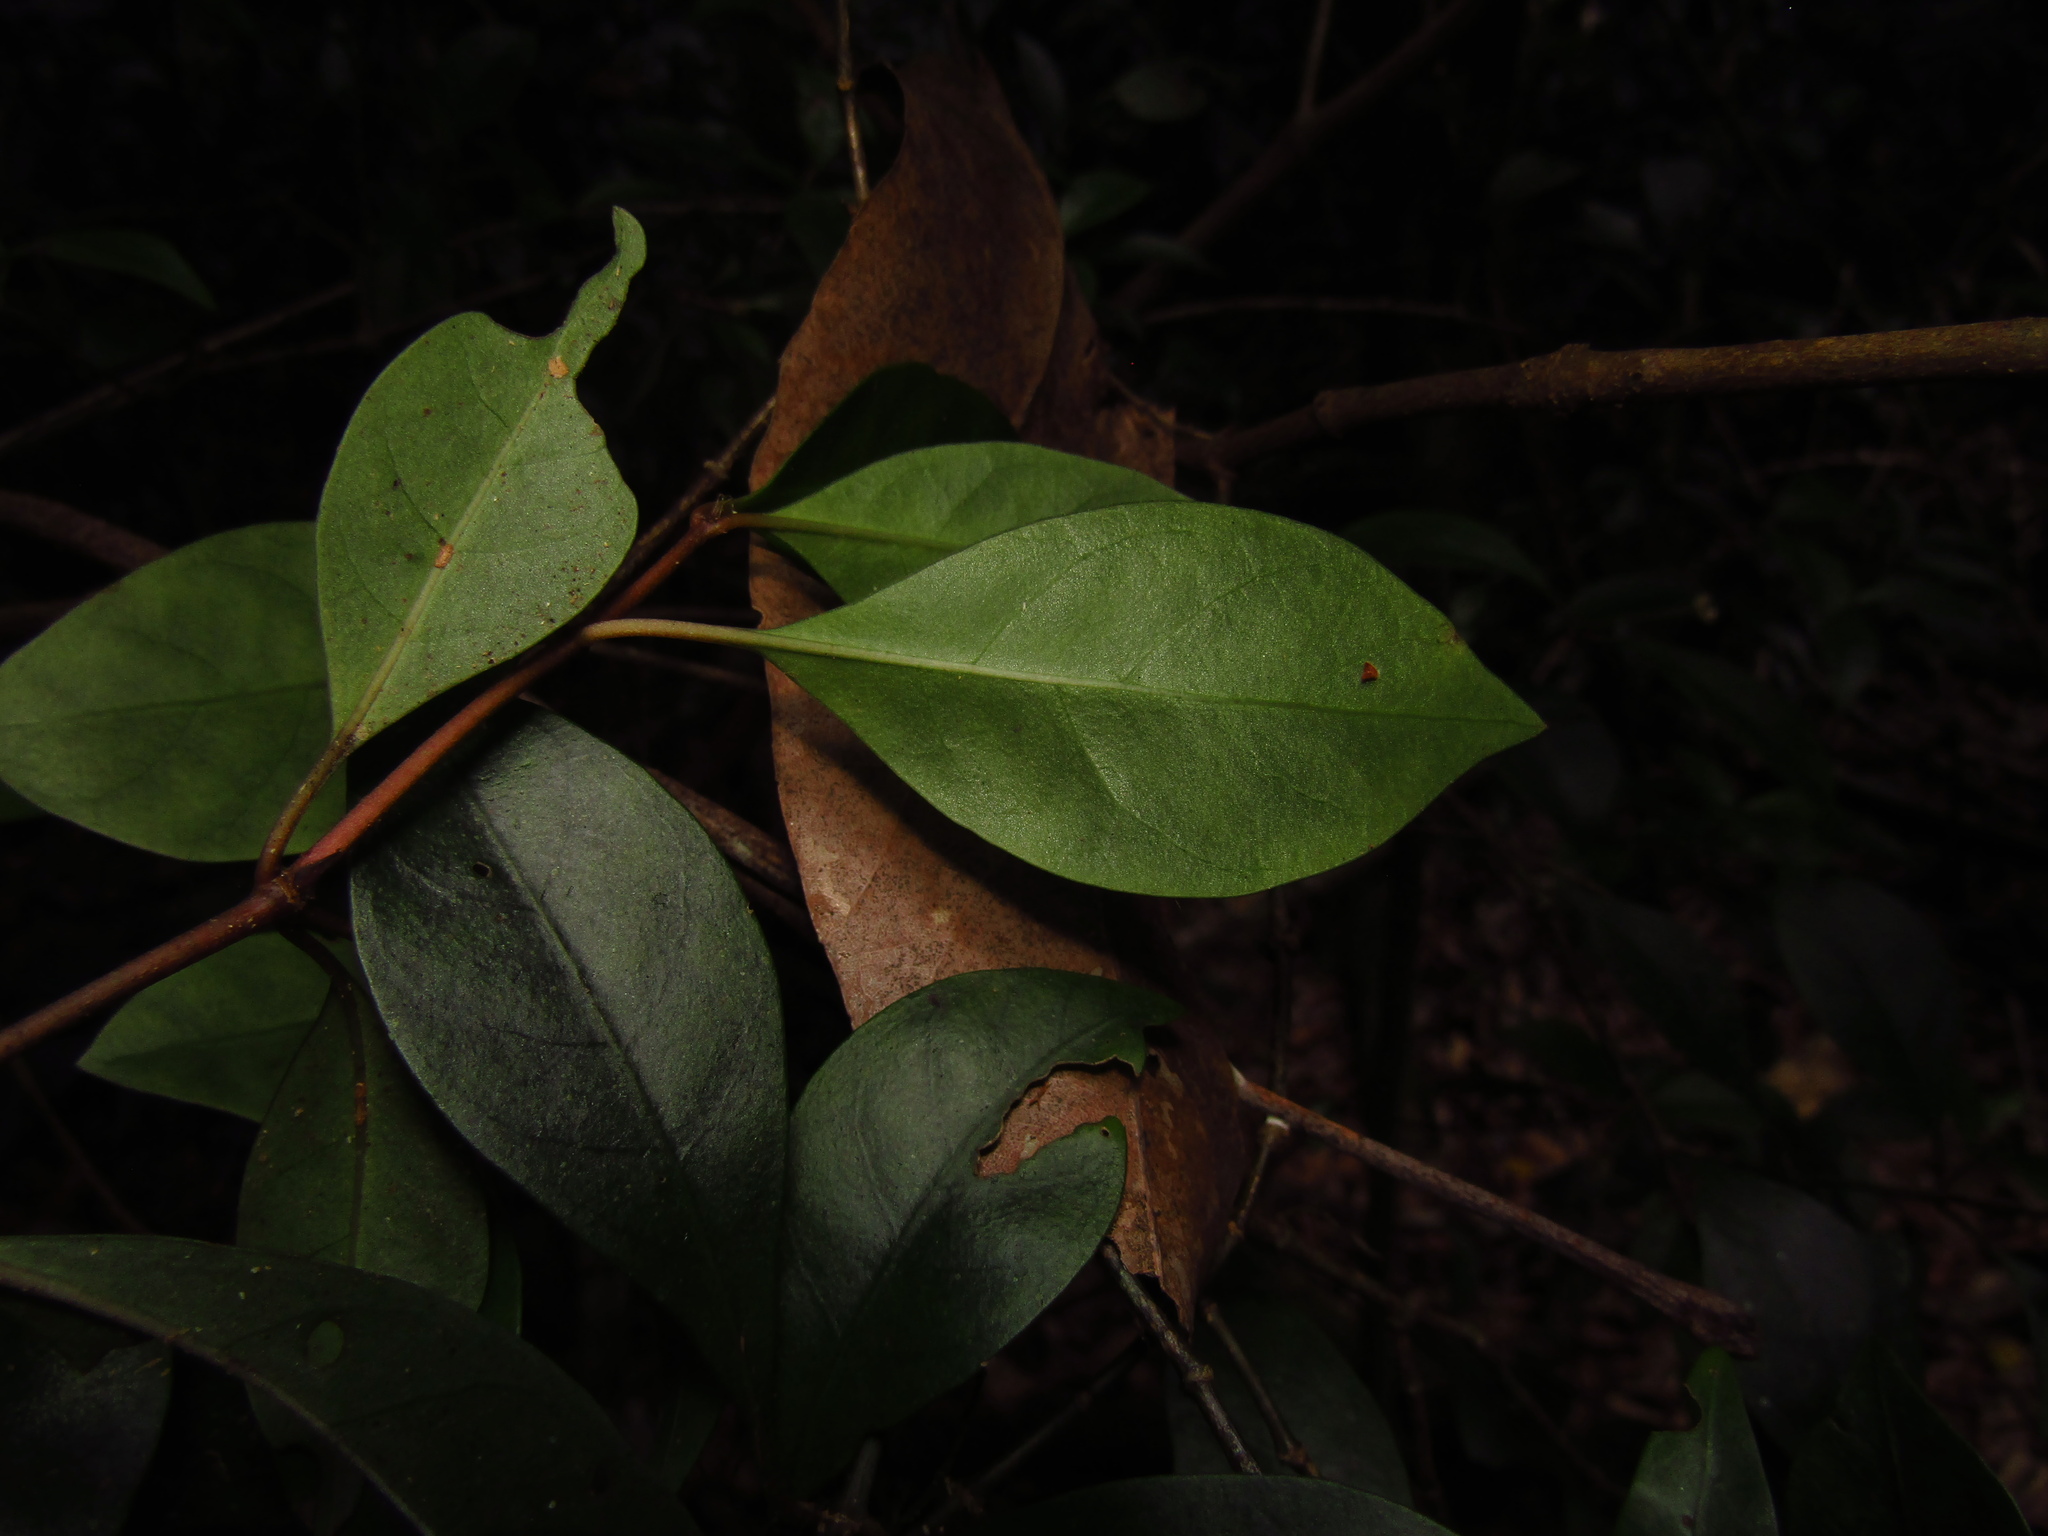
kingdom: Plantae
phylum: Tracheophyta
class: Magnoliopsida
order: Gentianales
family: Rubiaceae
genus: Psychotria
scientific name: Psychotria simmondsiana
